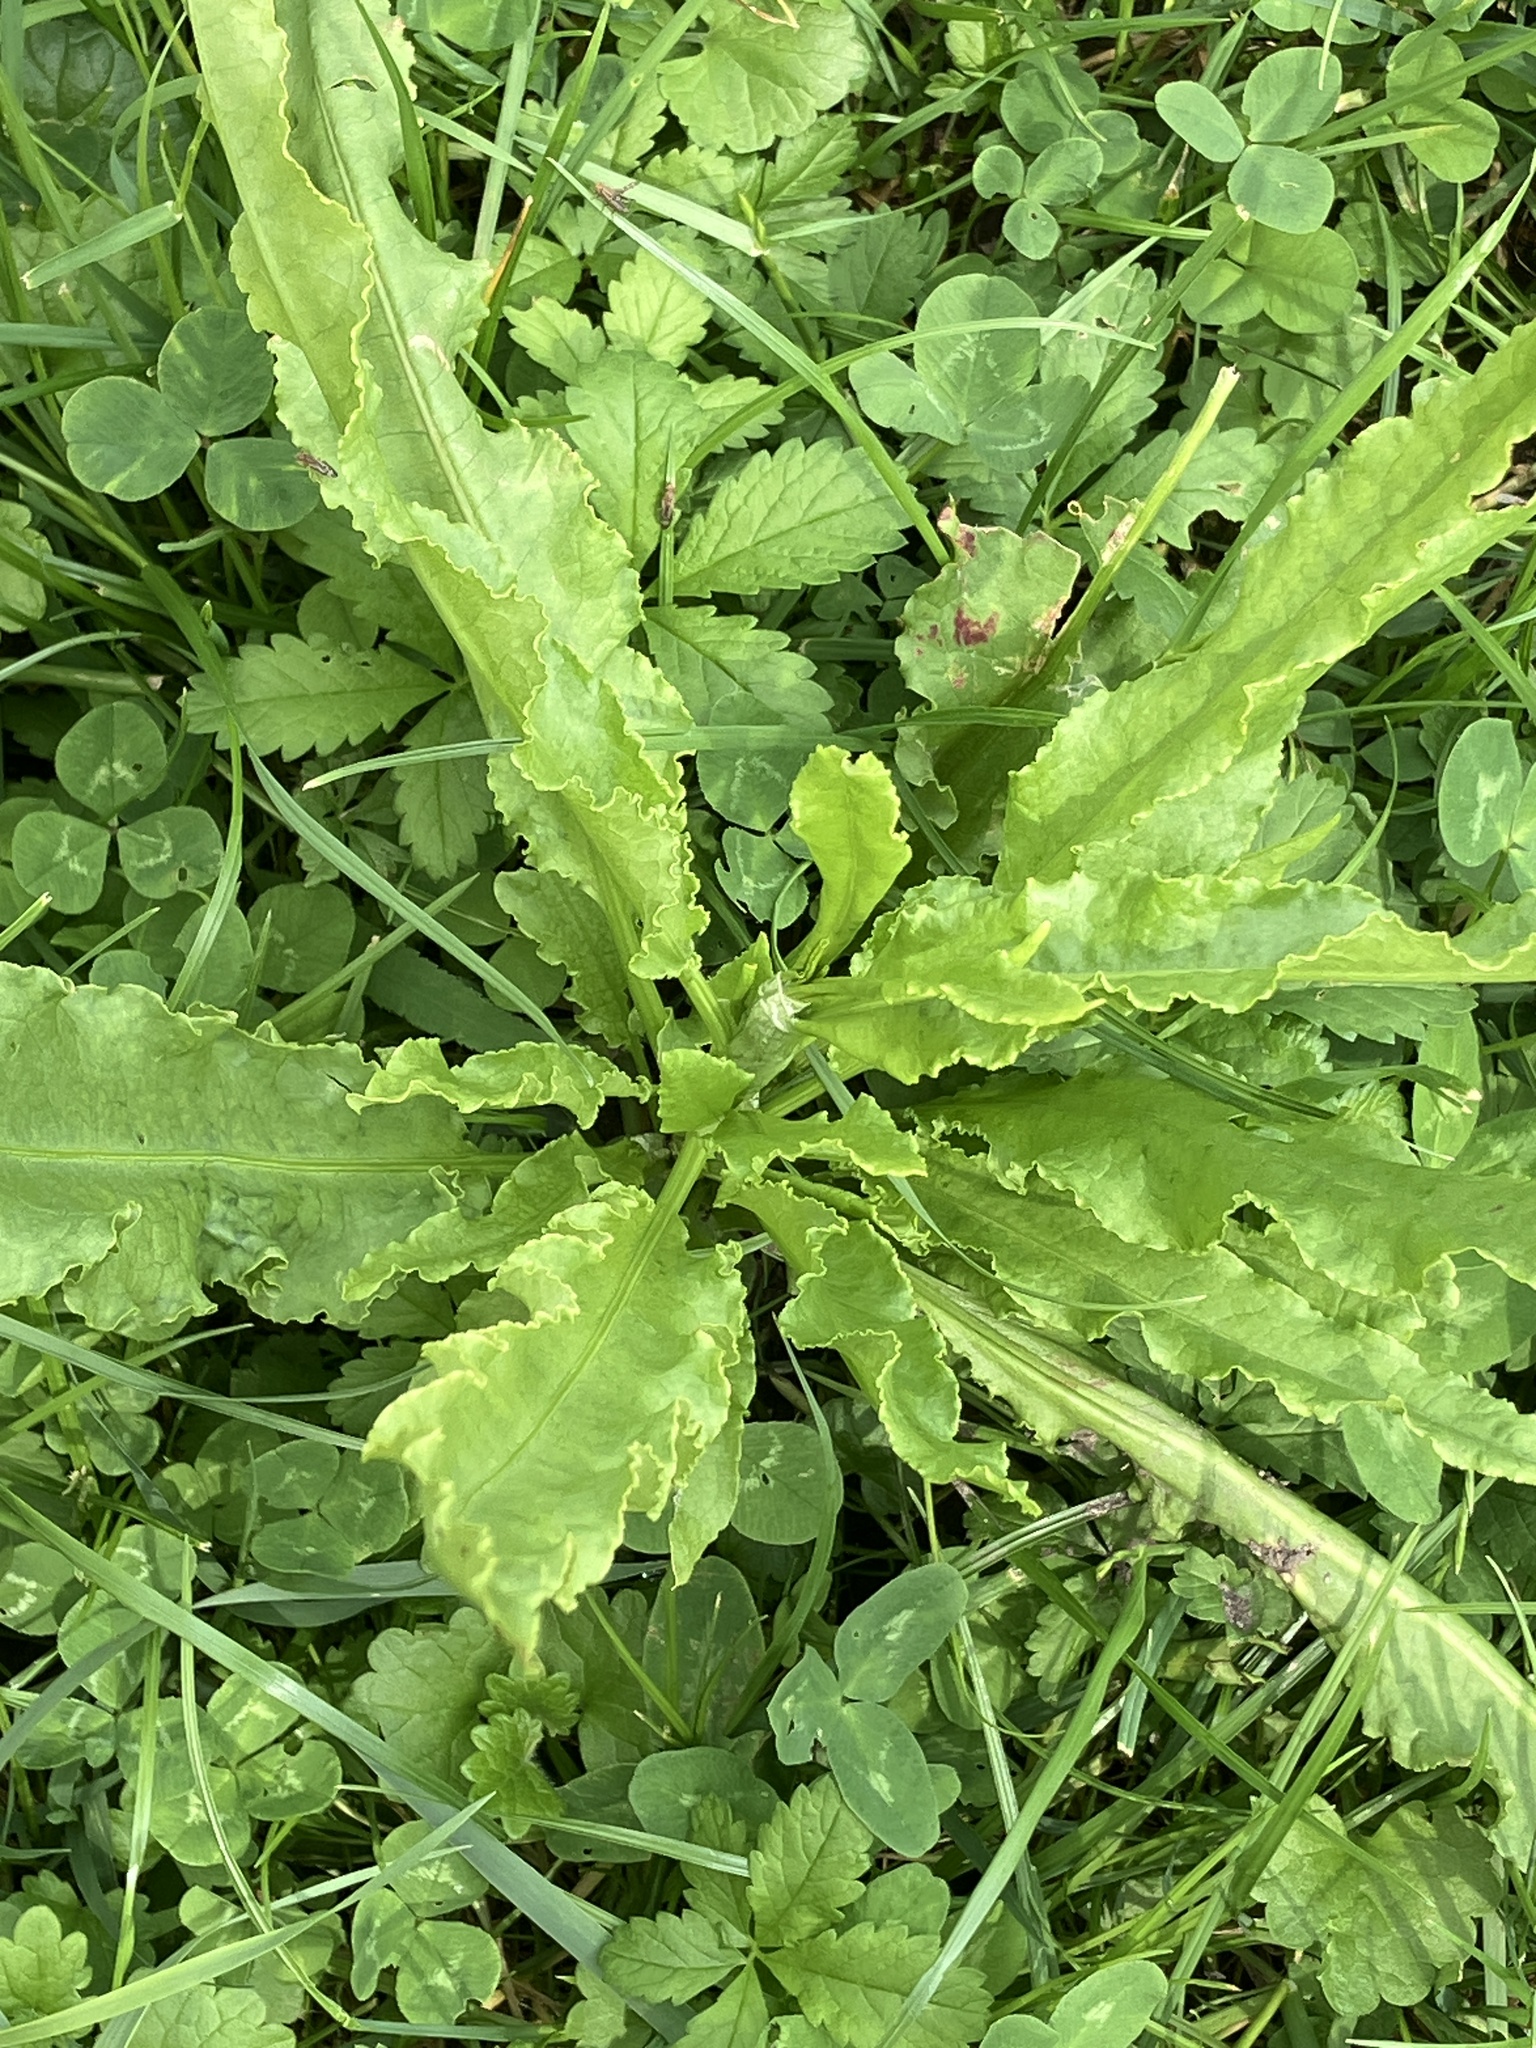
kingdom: Plantae
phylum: Tracheophyta
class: Magnoliopsida
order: Caryophyllales
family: Polygonaceae
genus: Rumex
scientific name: Rumex crispus
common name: Curled dock
